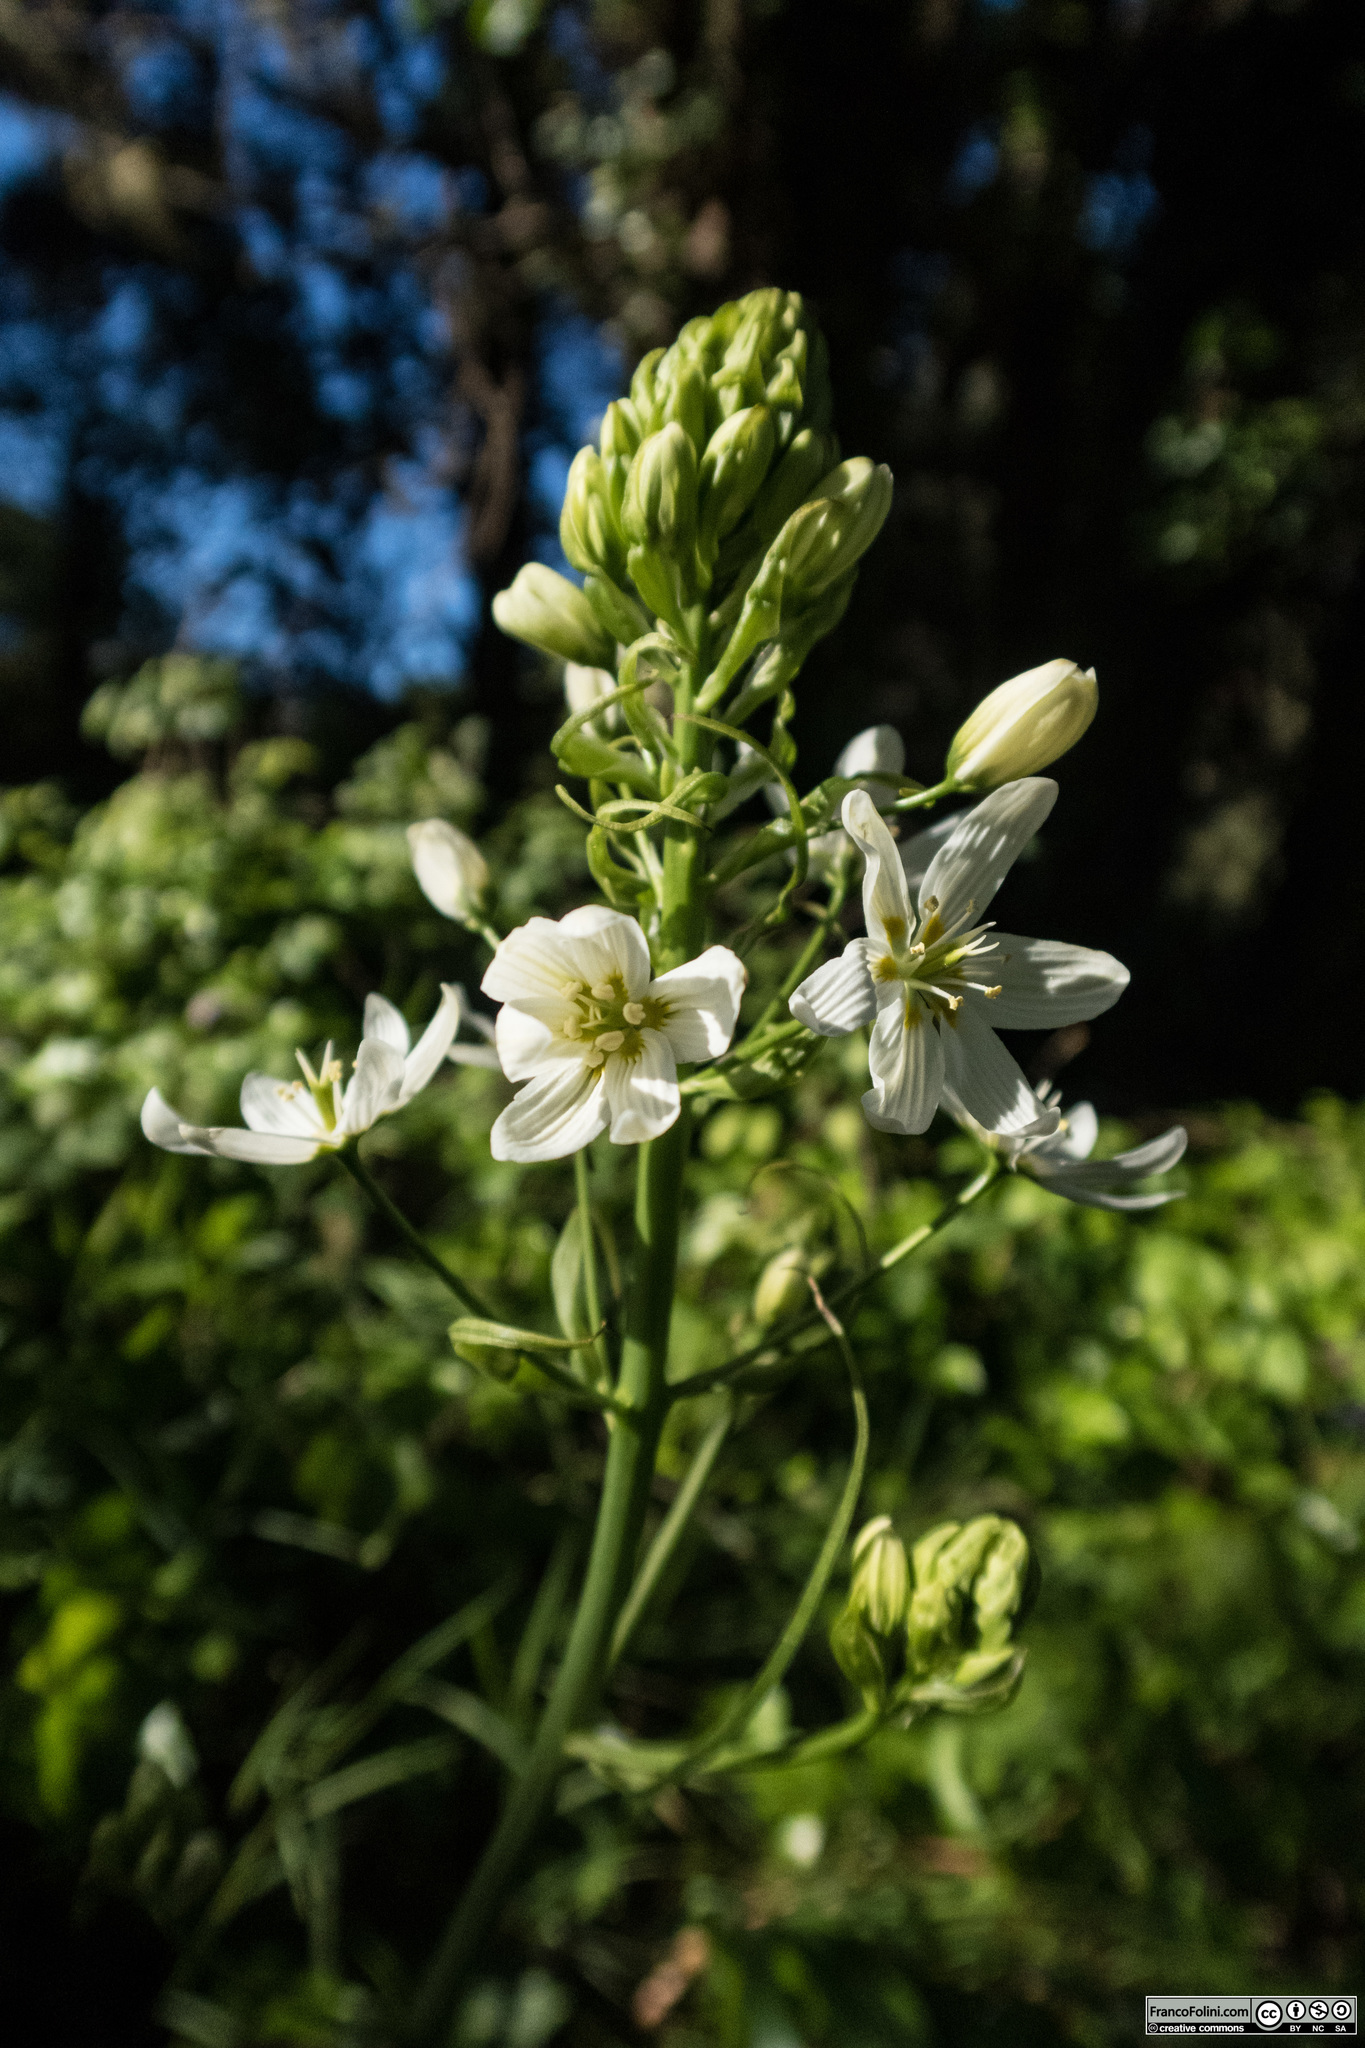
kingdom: Plantae
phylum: Tracheophyta
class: Liliopsida
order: Liliales
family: Melanthiaceae
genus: Toxicoscordion
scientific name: Toxicoscordion fremontii
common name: Fremont's death camas
